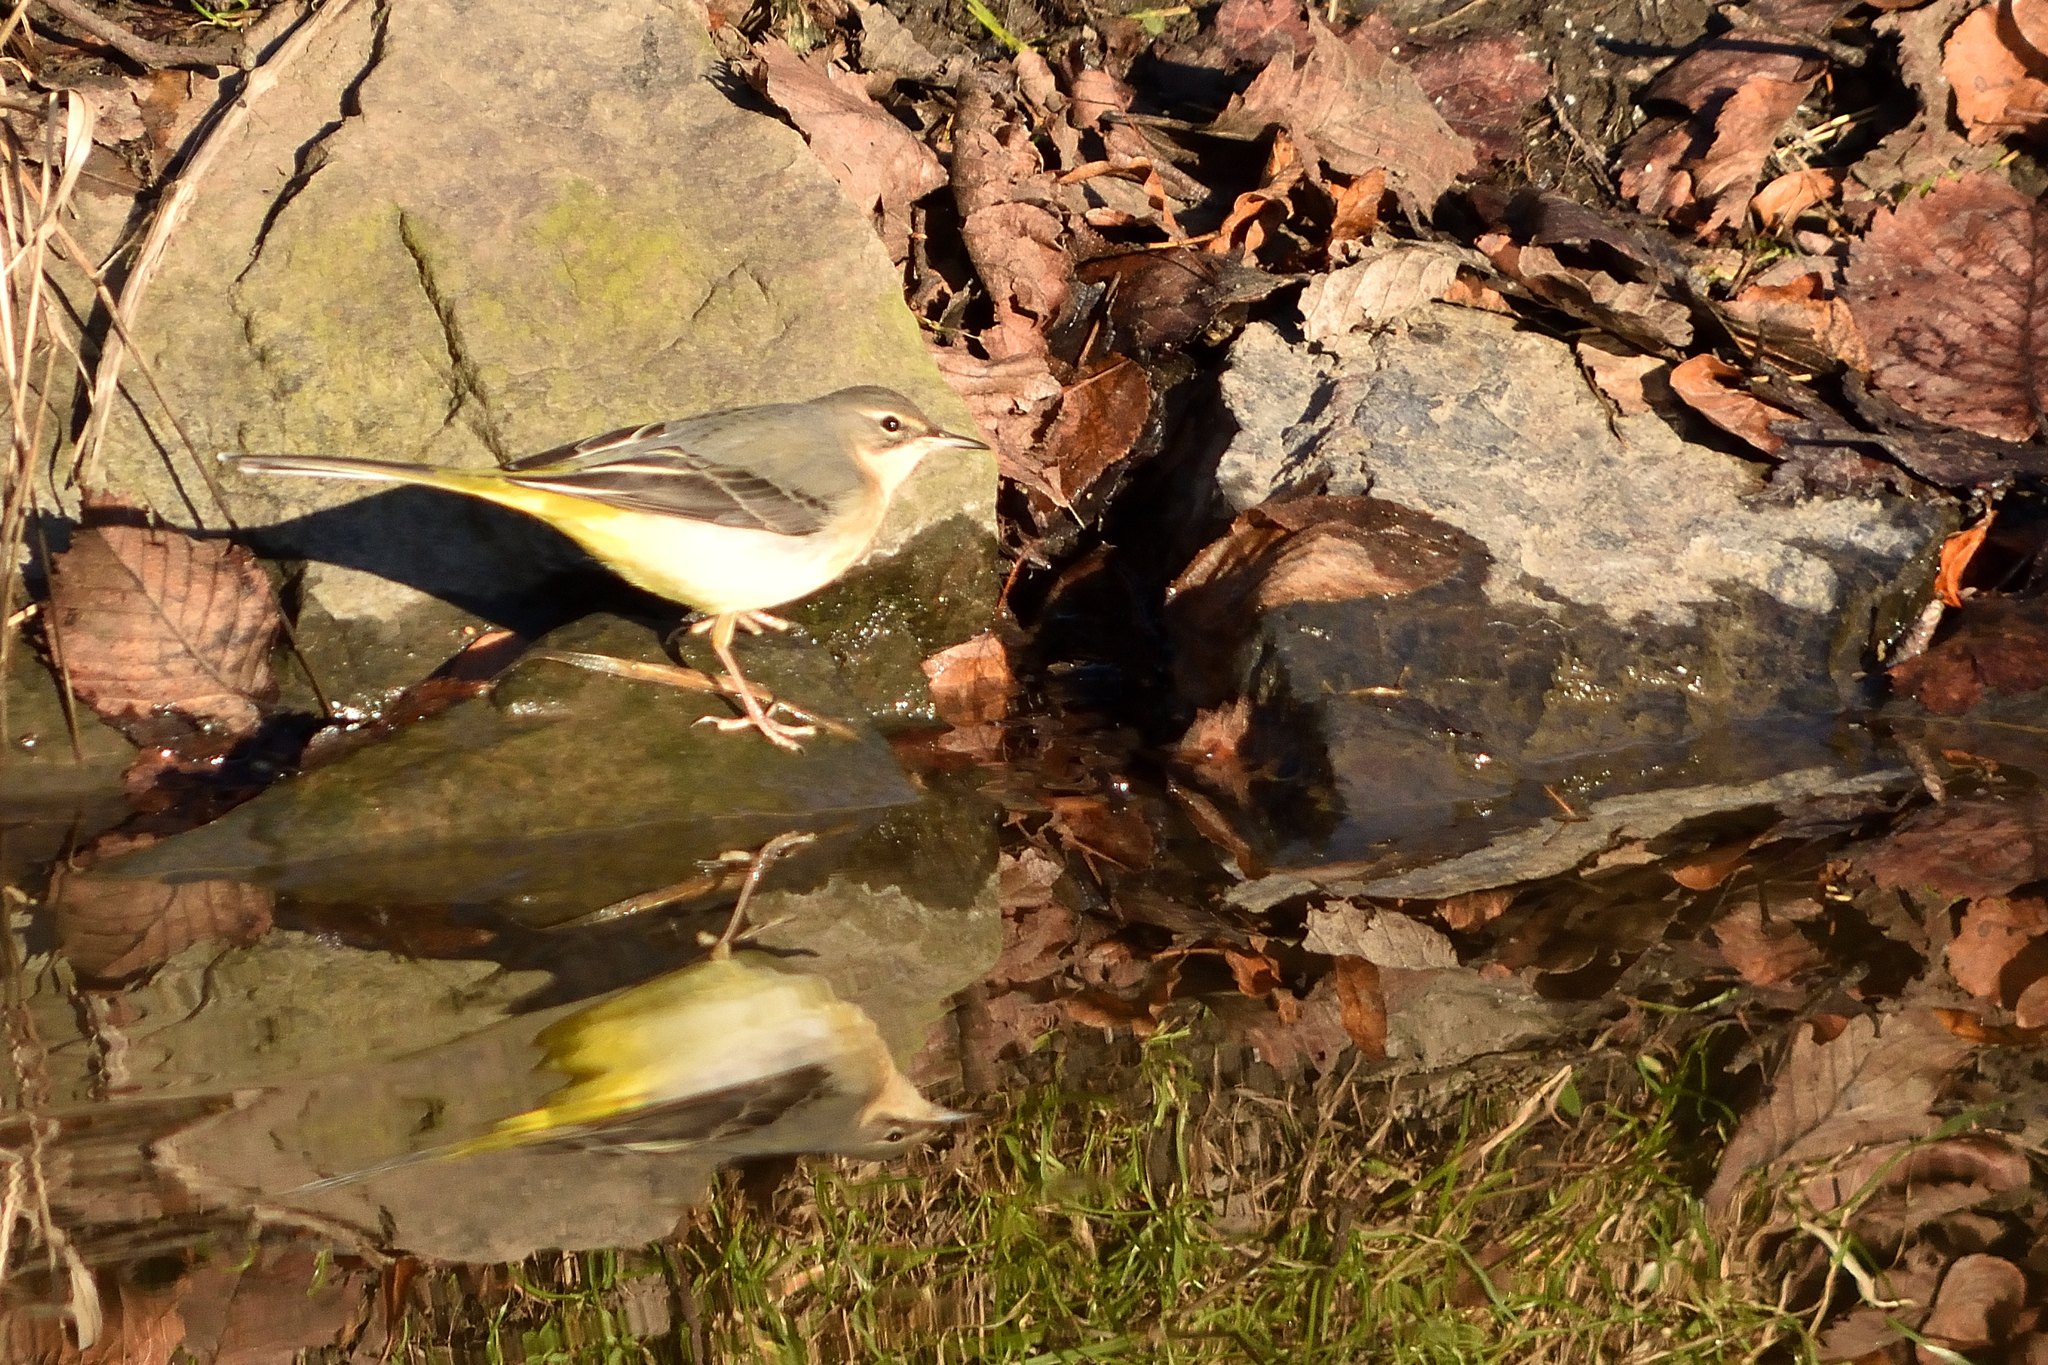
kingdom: Animalia
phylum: Chordata
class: Aves
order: Passeriformes
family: Motacillidae
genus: Motacilla
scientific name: Motacilla cinerea
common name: Grey wagtail
